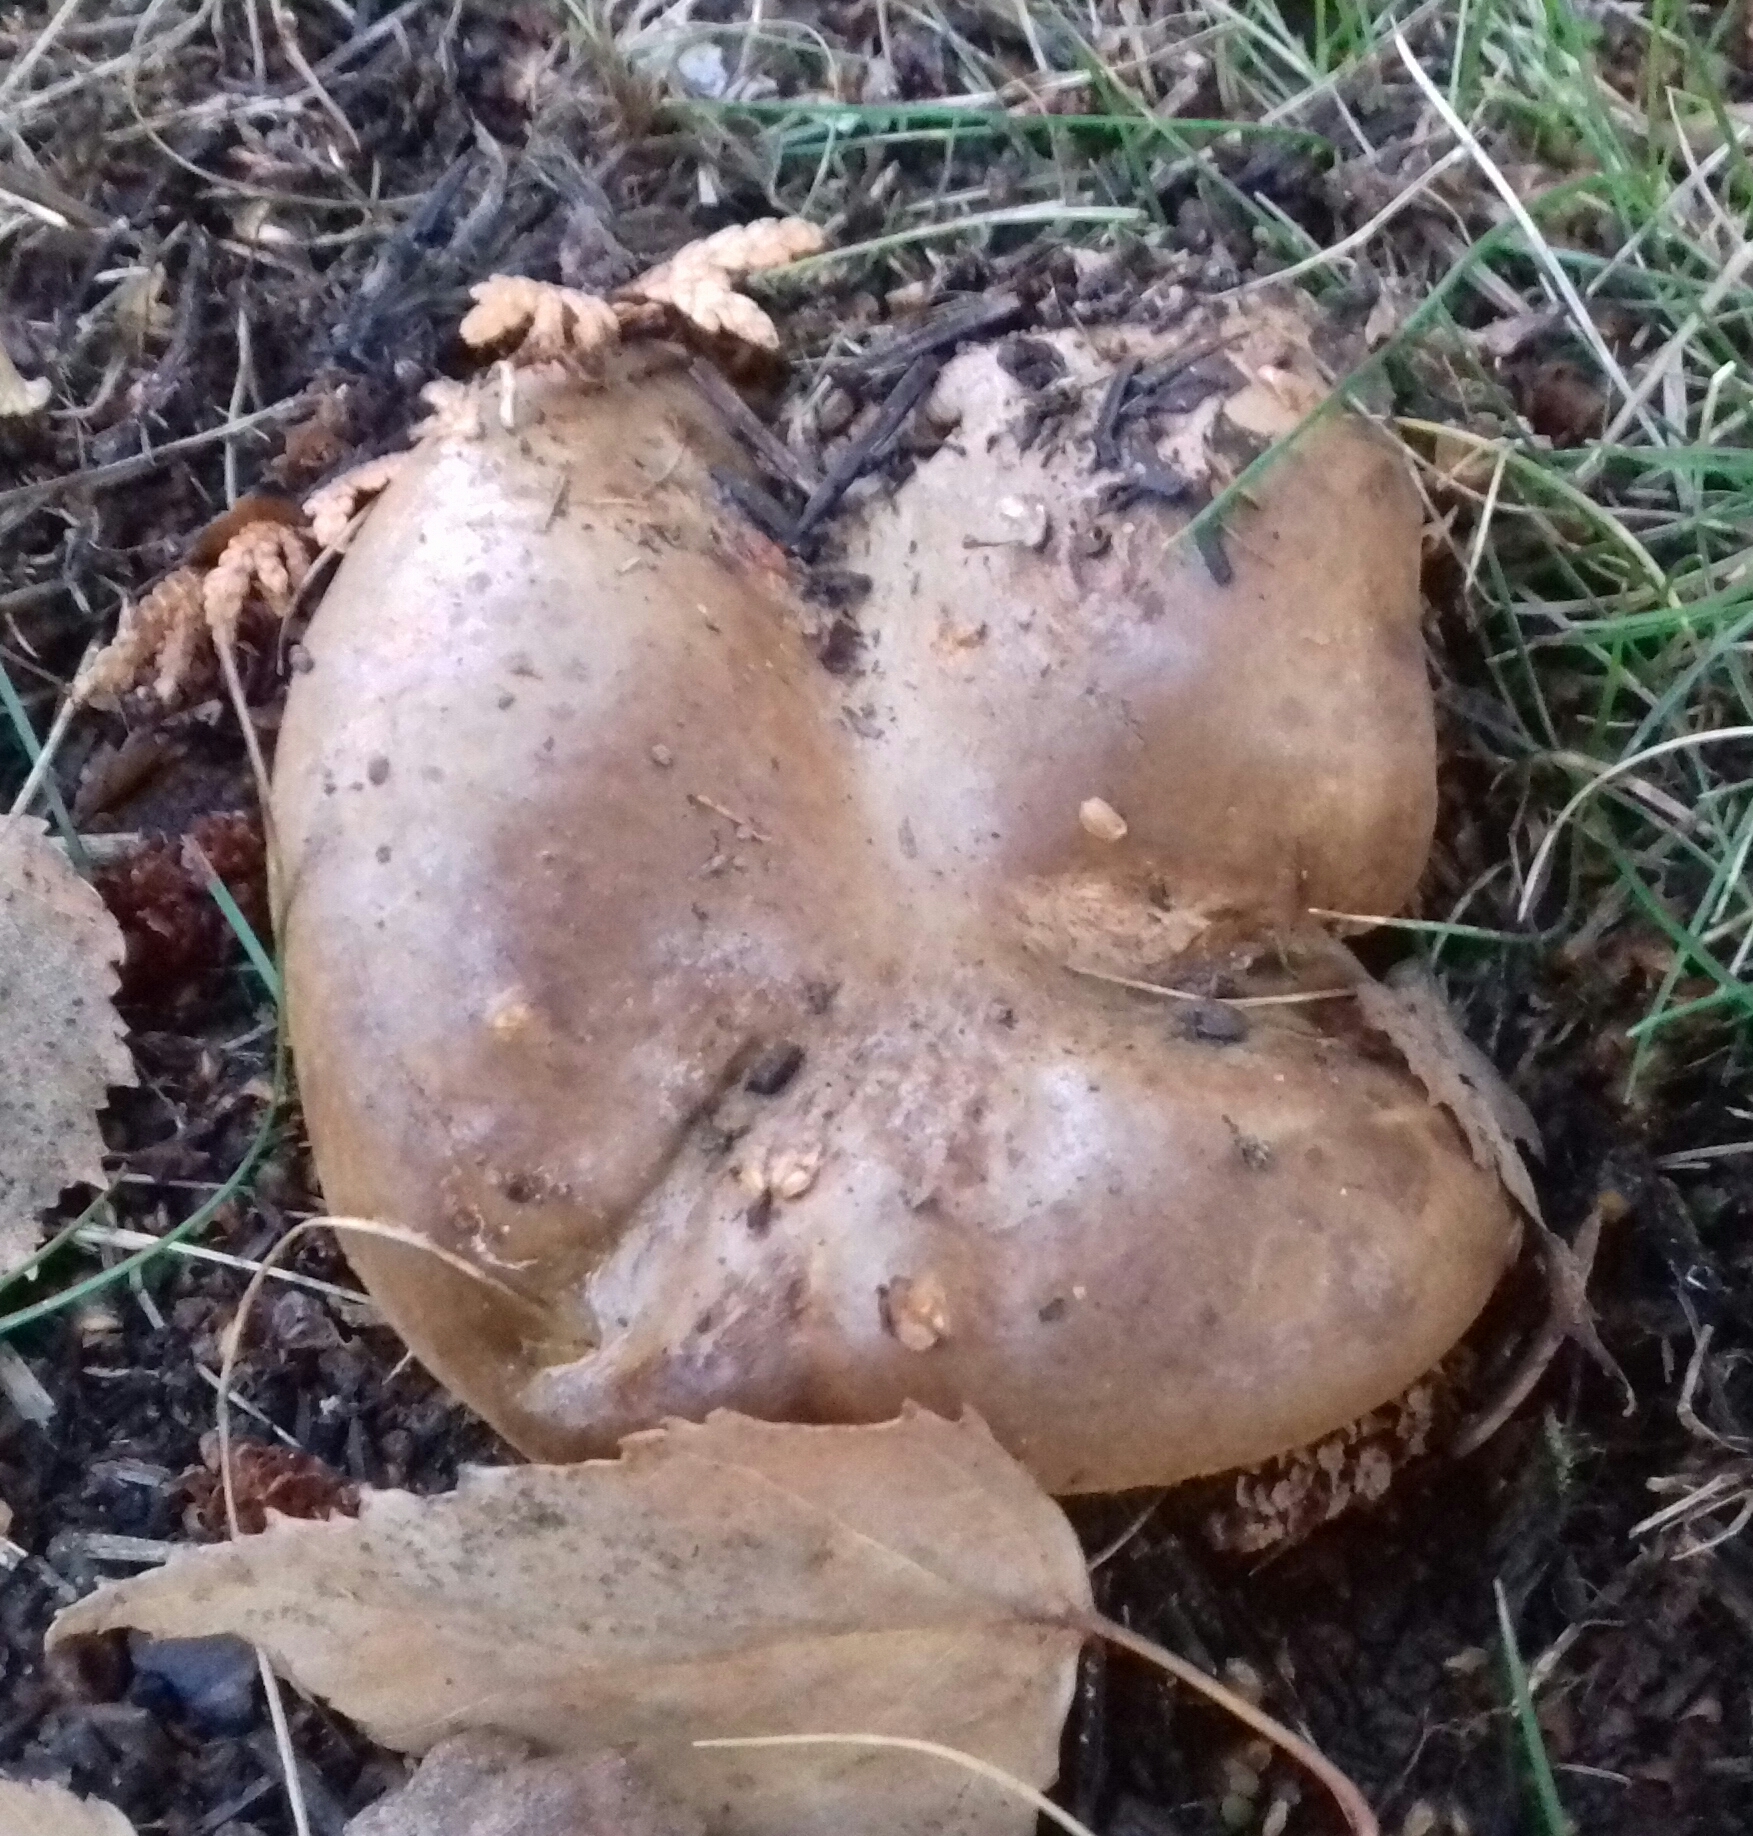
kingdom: Fungi
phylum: Basidiomycota
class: Agaricomycetes
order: Boletales
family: Paxillaceae
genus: Paxillus
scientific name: Paxillus involutus
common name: Brown roll rim
